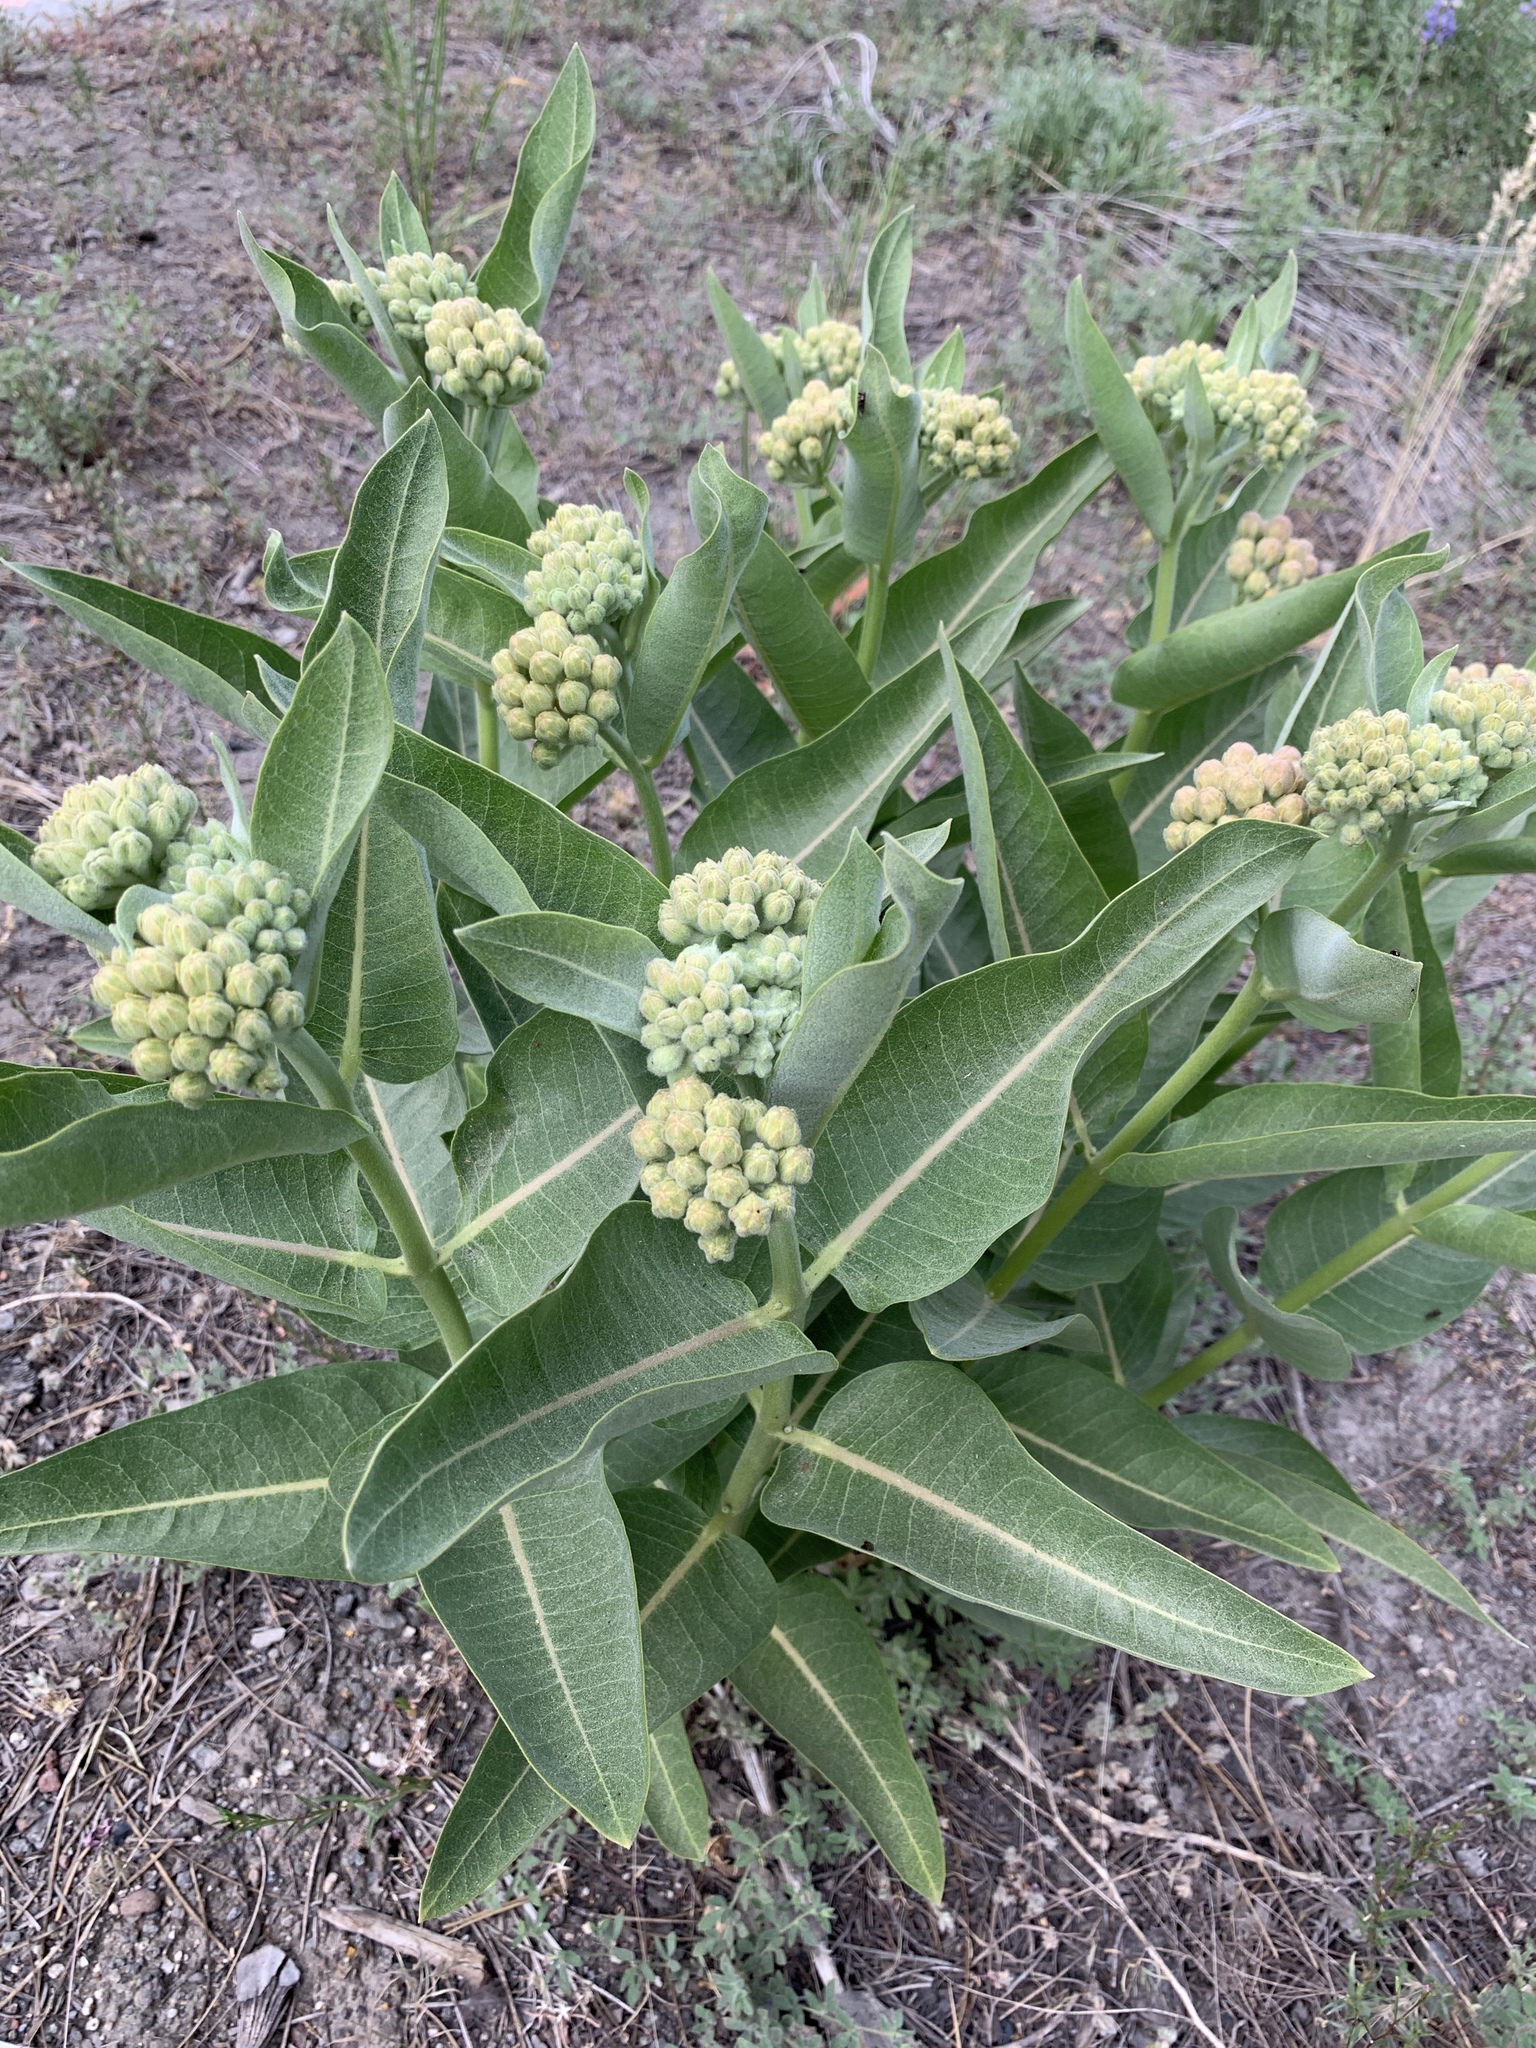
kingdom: Plantae
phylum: Tracheophyta
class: Magnoliopsida
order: Gentianales
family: Apocynaceae
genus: Asclepias
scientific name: Asclepias speciosa
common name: Showy milkweed
